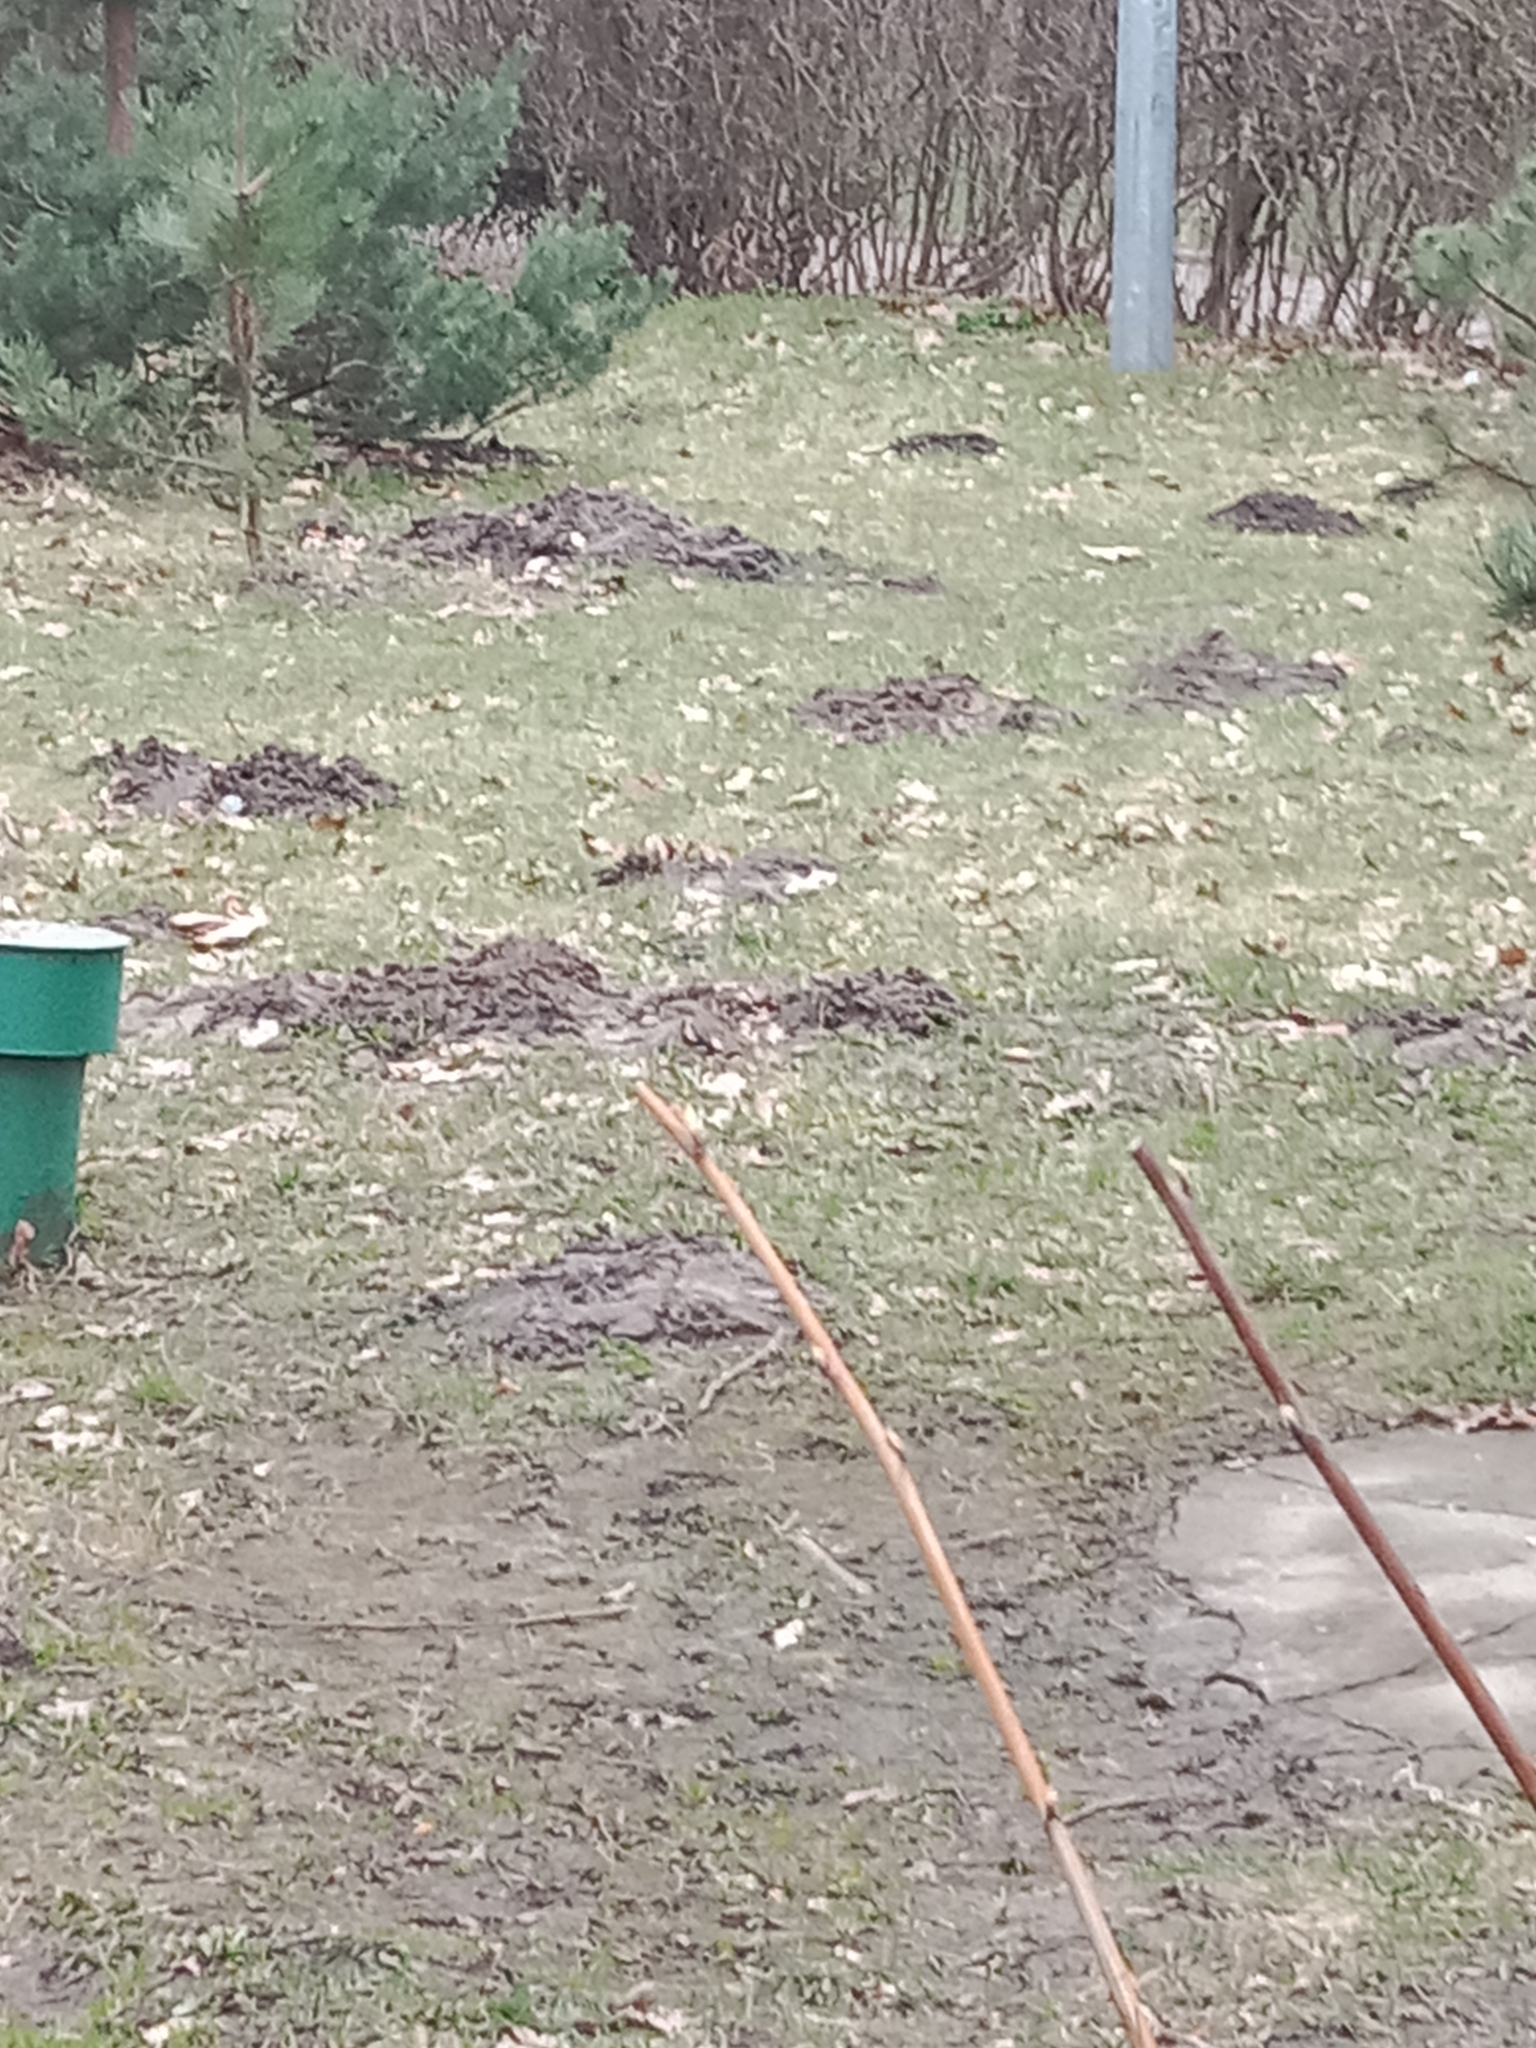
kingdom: Animalia
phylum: Chordata
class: Mammalia
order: Soricomorpha
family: Talpidae
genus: Talpa
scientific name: Talpa europaea
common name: European mole
